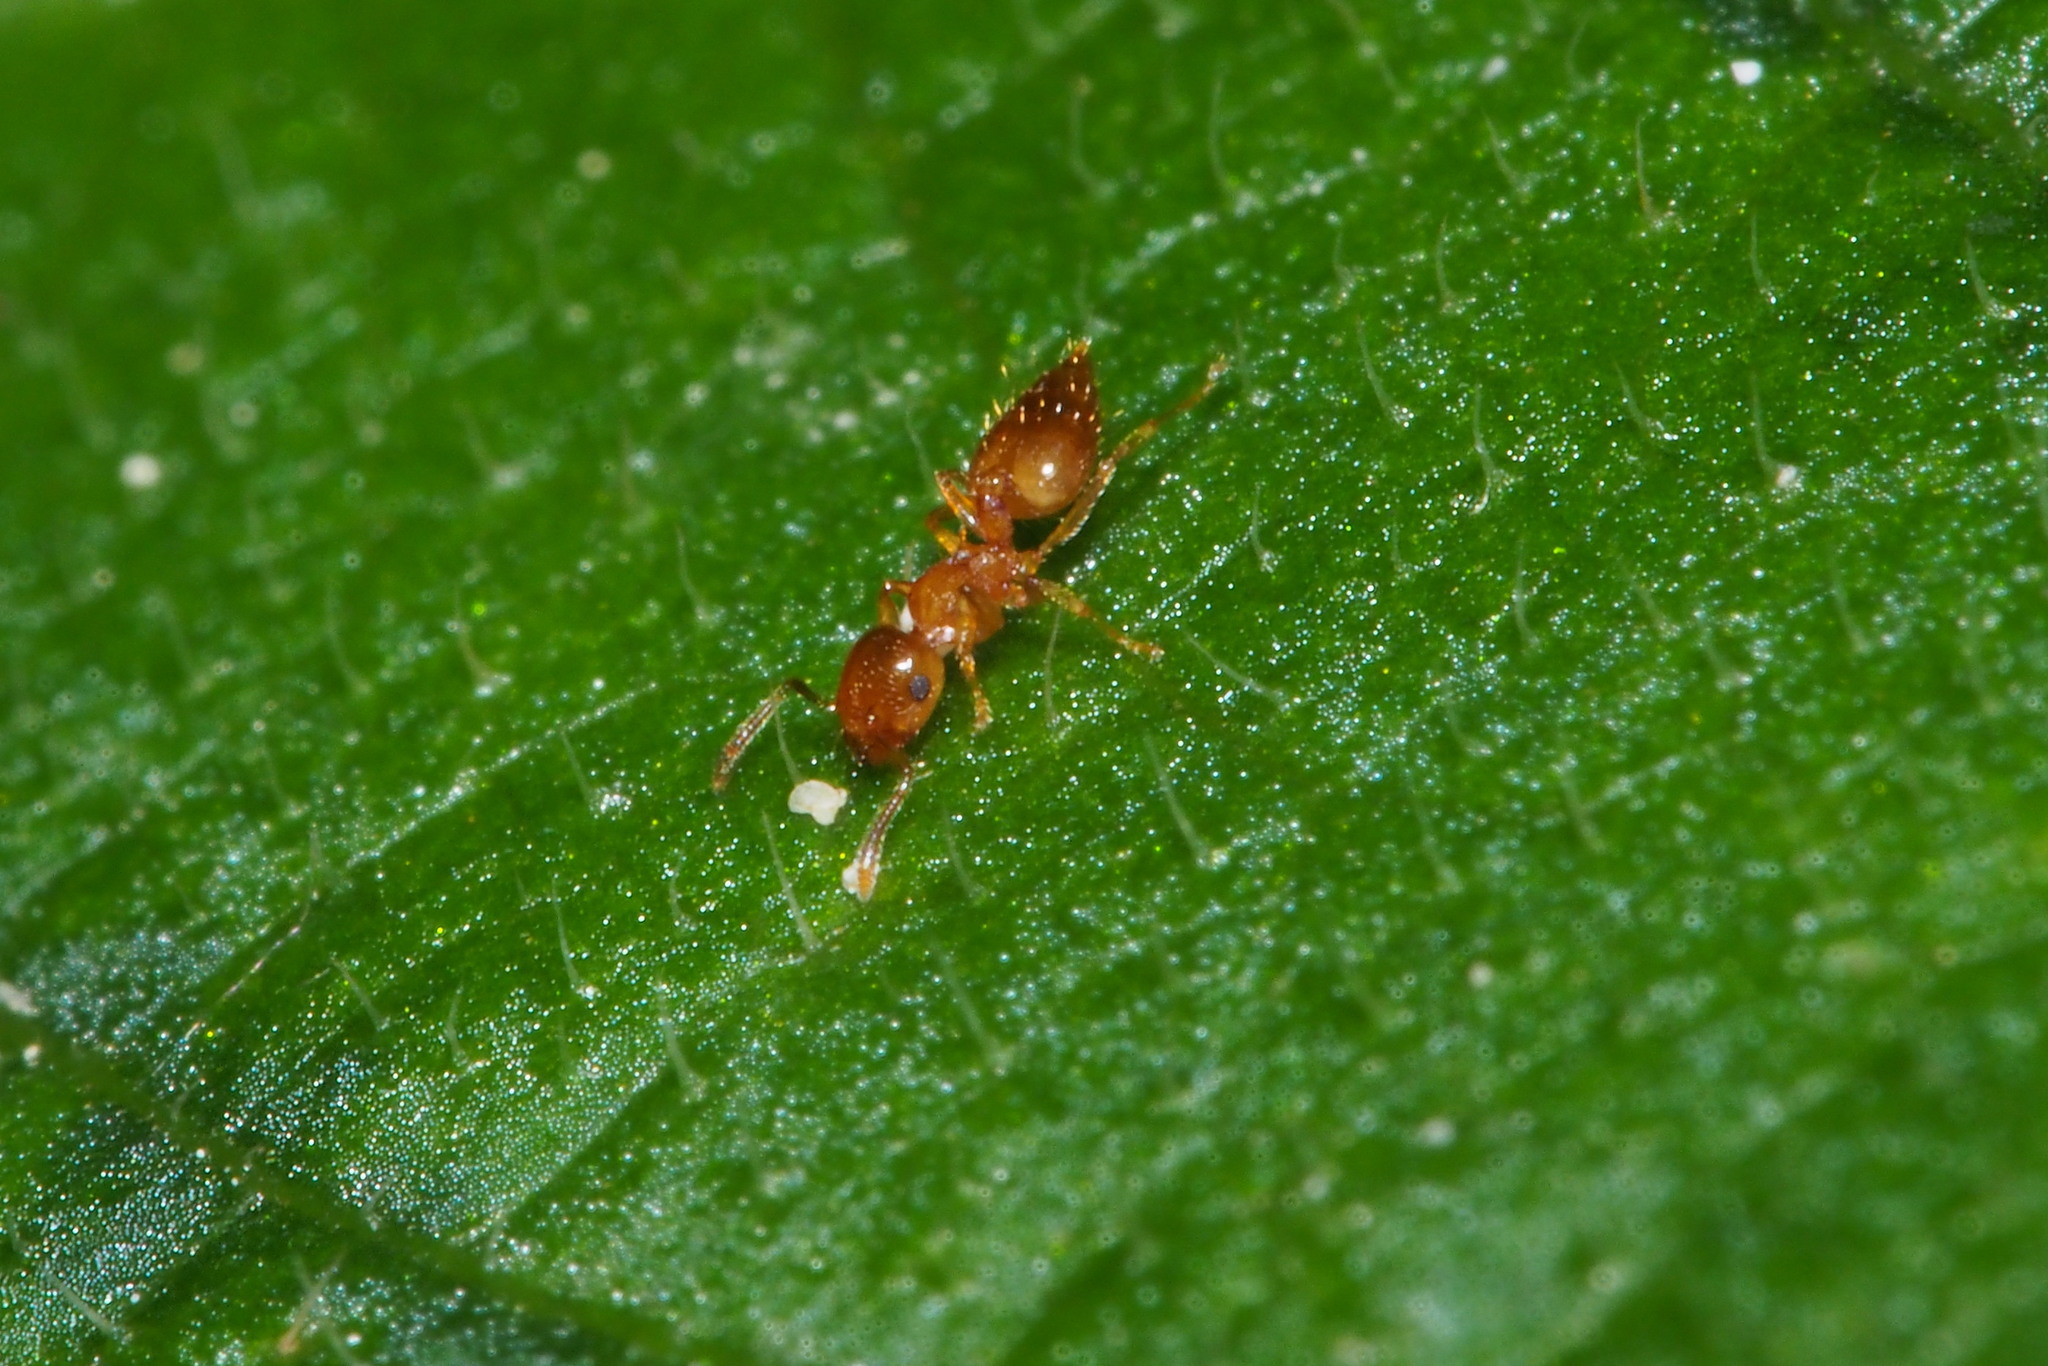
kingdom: Animalia
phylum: Arthropoda
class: Insecta
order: Hymenoptera
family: Formicidae
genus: Crematogaster
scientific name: Crematogaster osakensis
